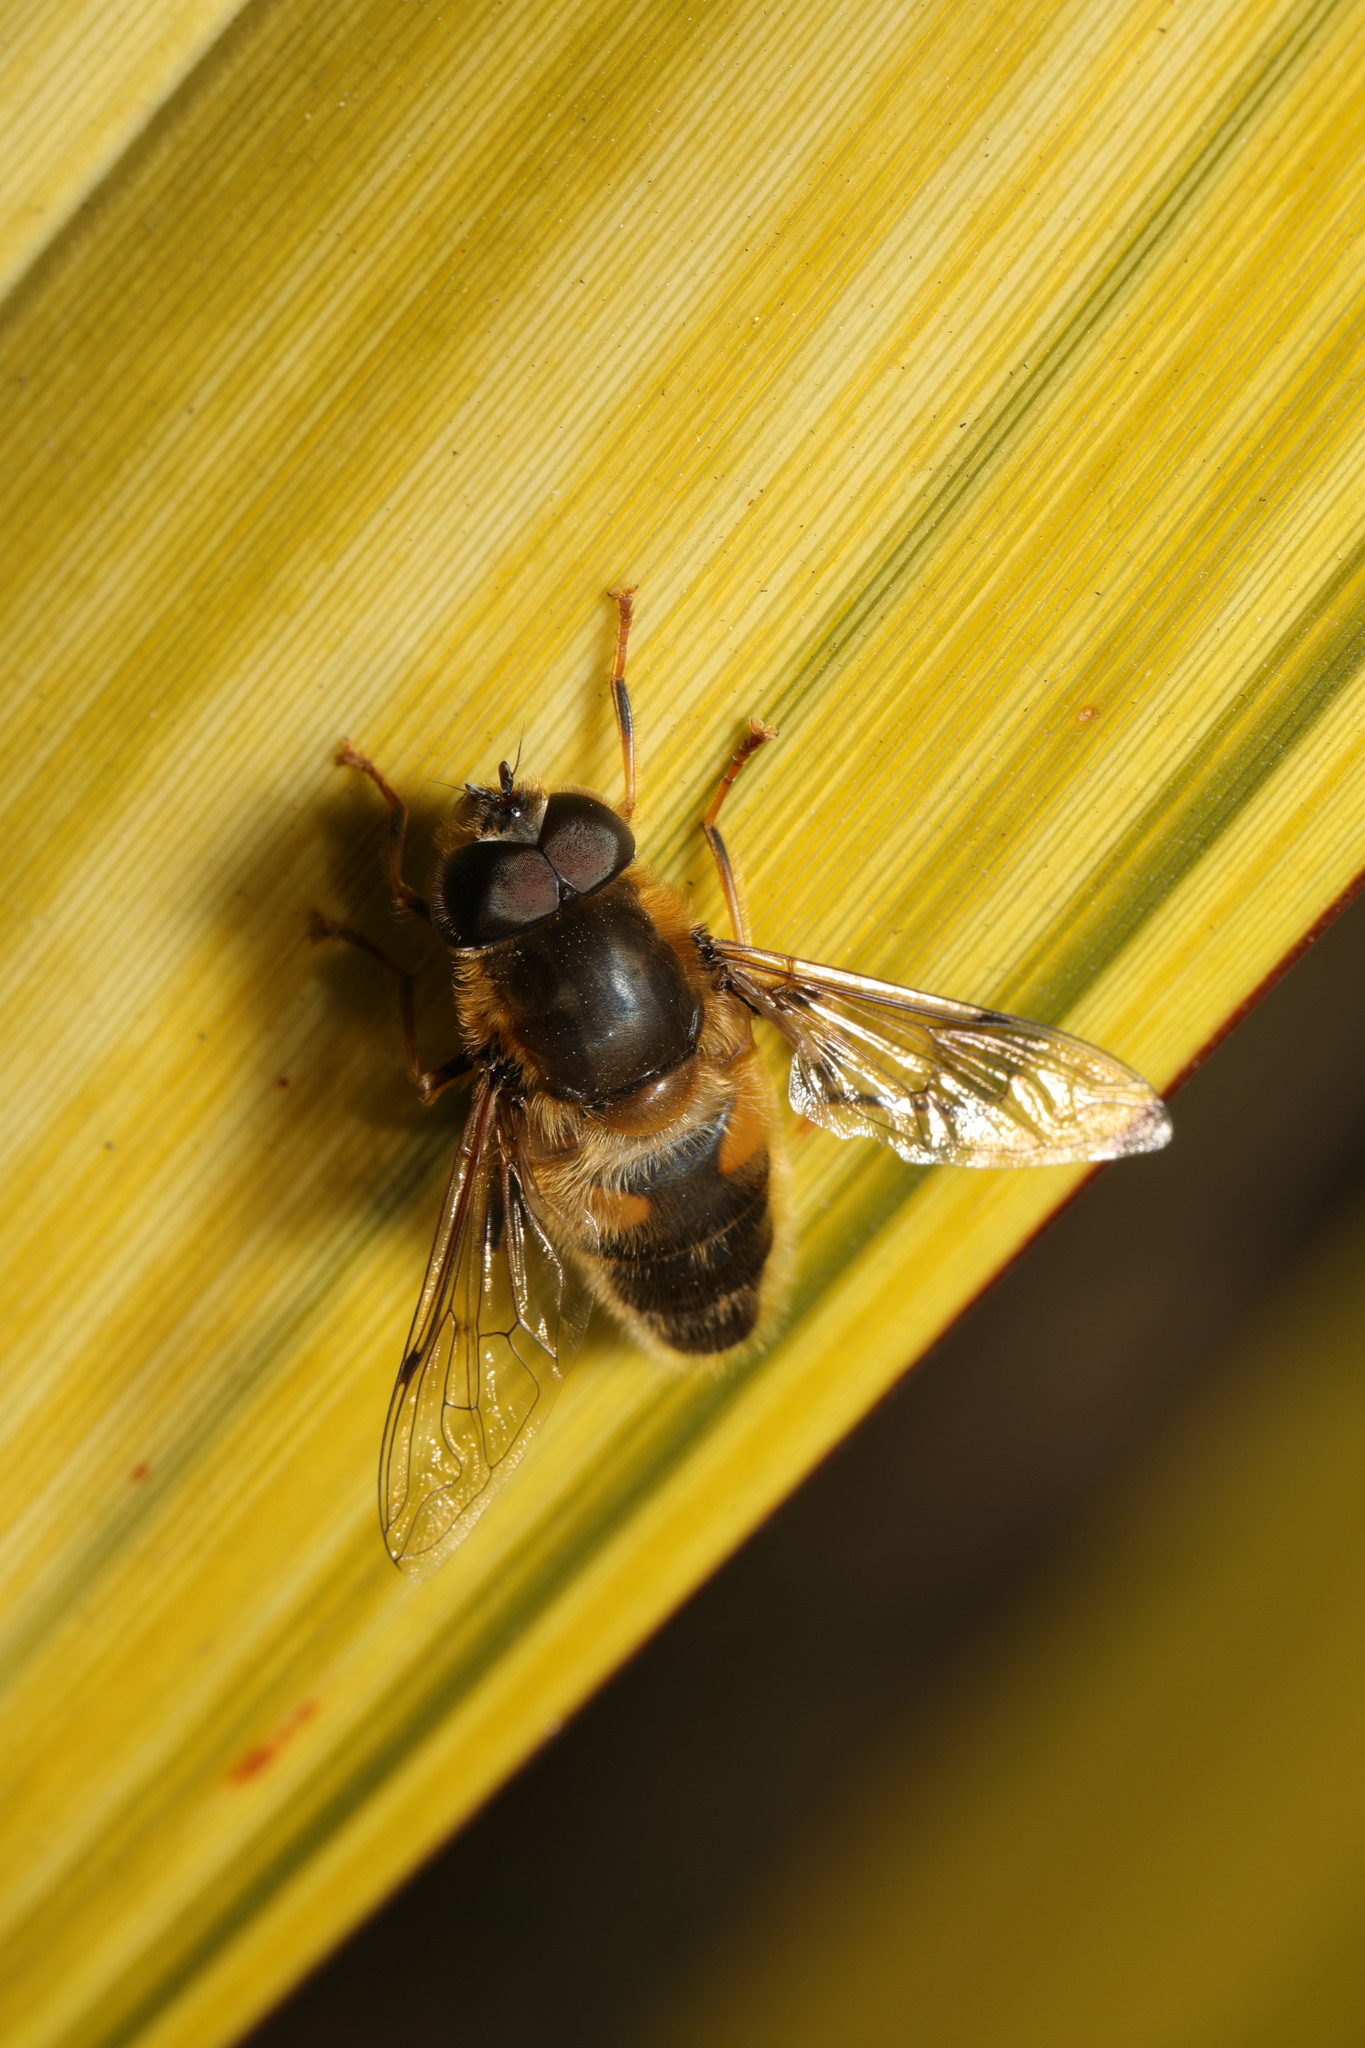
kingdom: Animalia
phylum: Arthropoda
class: Insecta
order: Diptera
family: Syrphidae
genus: Eristalis
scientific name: Eristalis pertinax
